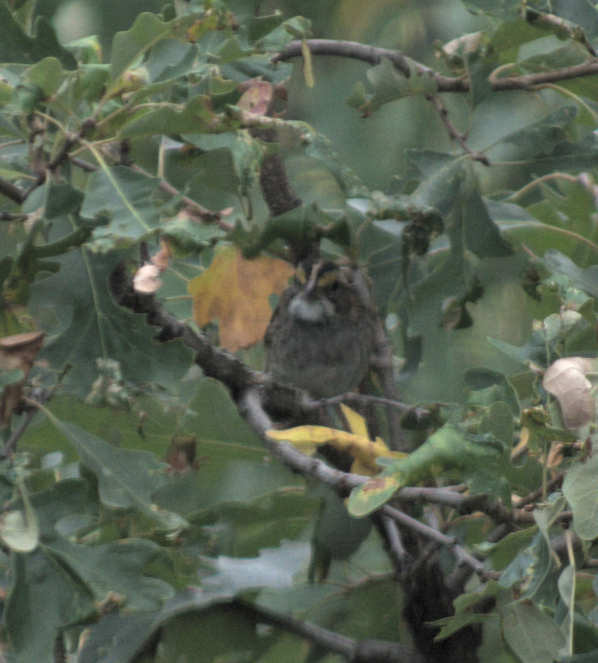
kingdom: Animalia
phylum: Chordata
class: Aves
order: Passeriformes
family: Passerellidae
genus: Zonotrichia
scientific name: Zonotrichia albicollis
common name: White-throated sparrow
